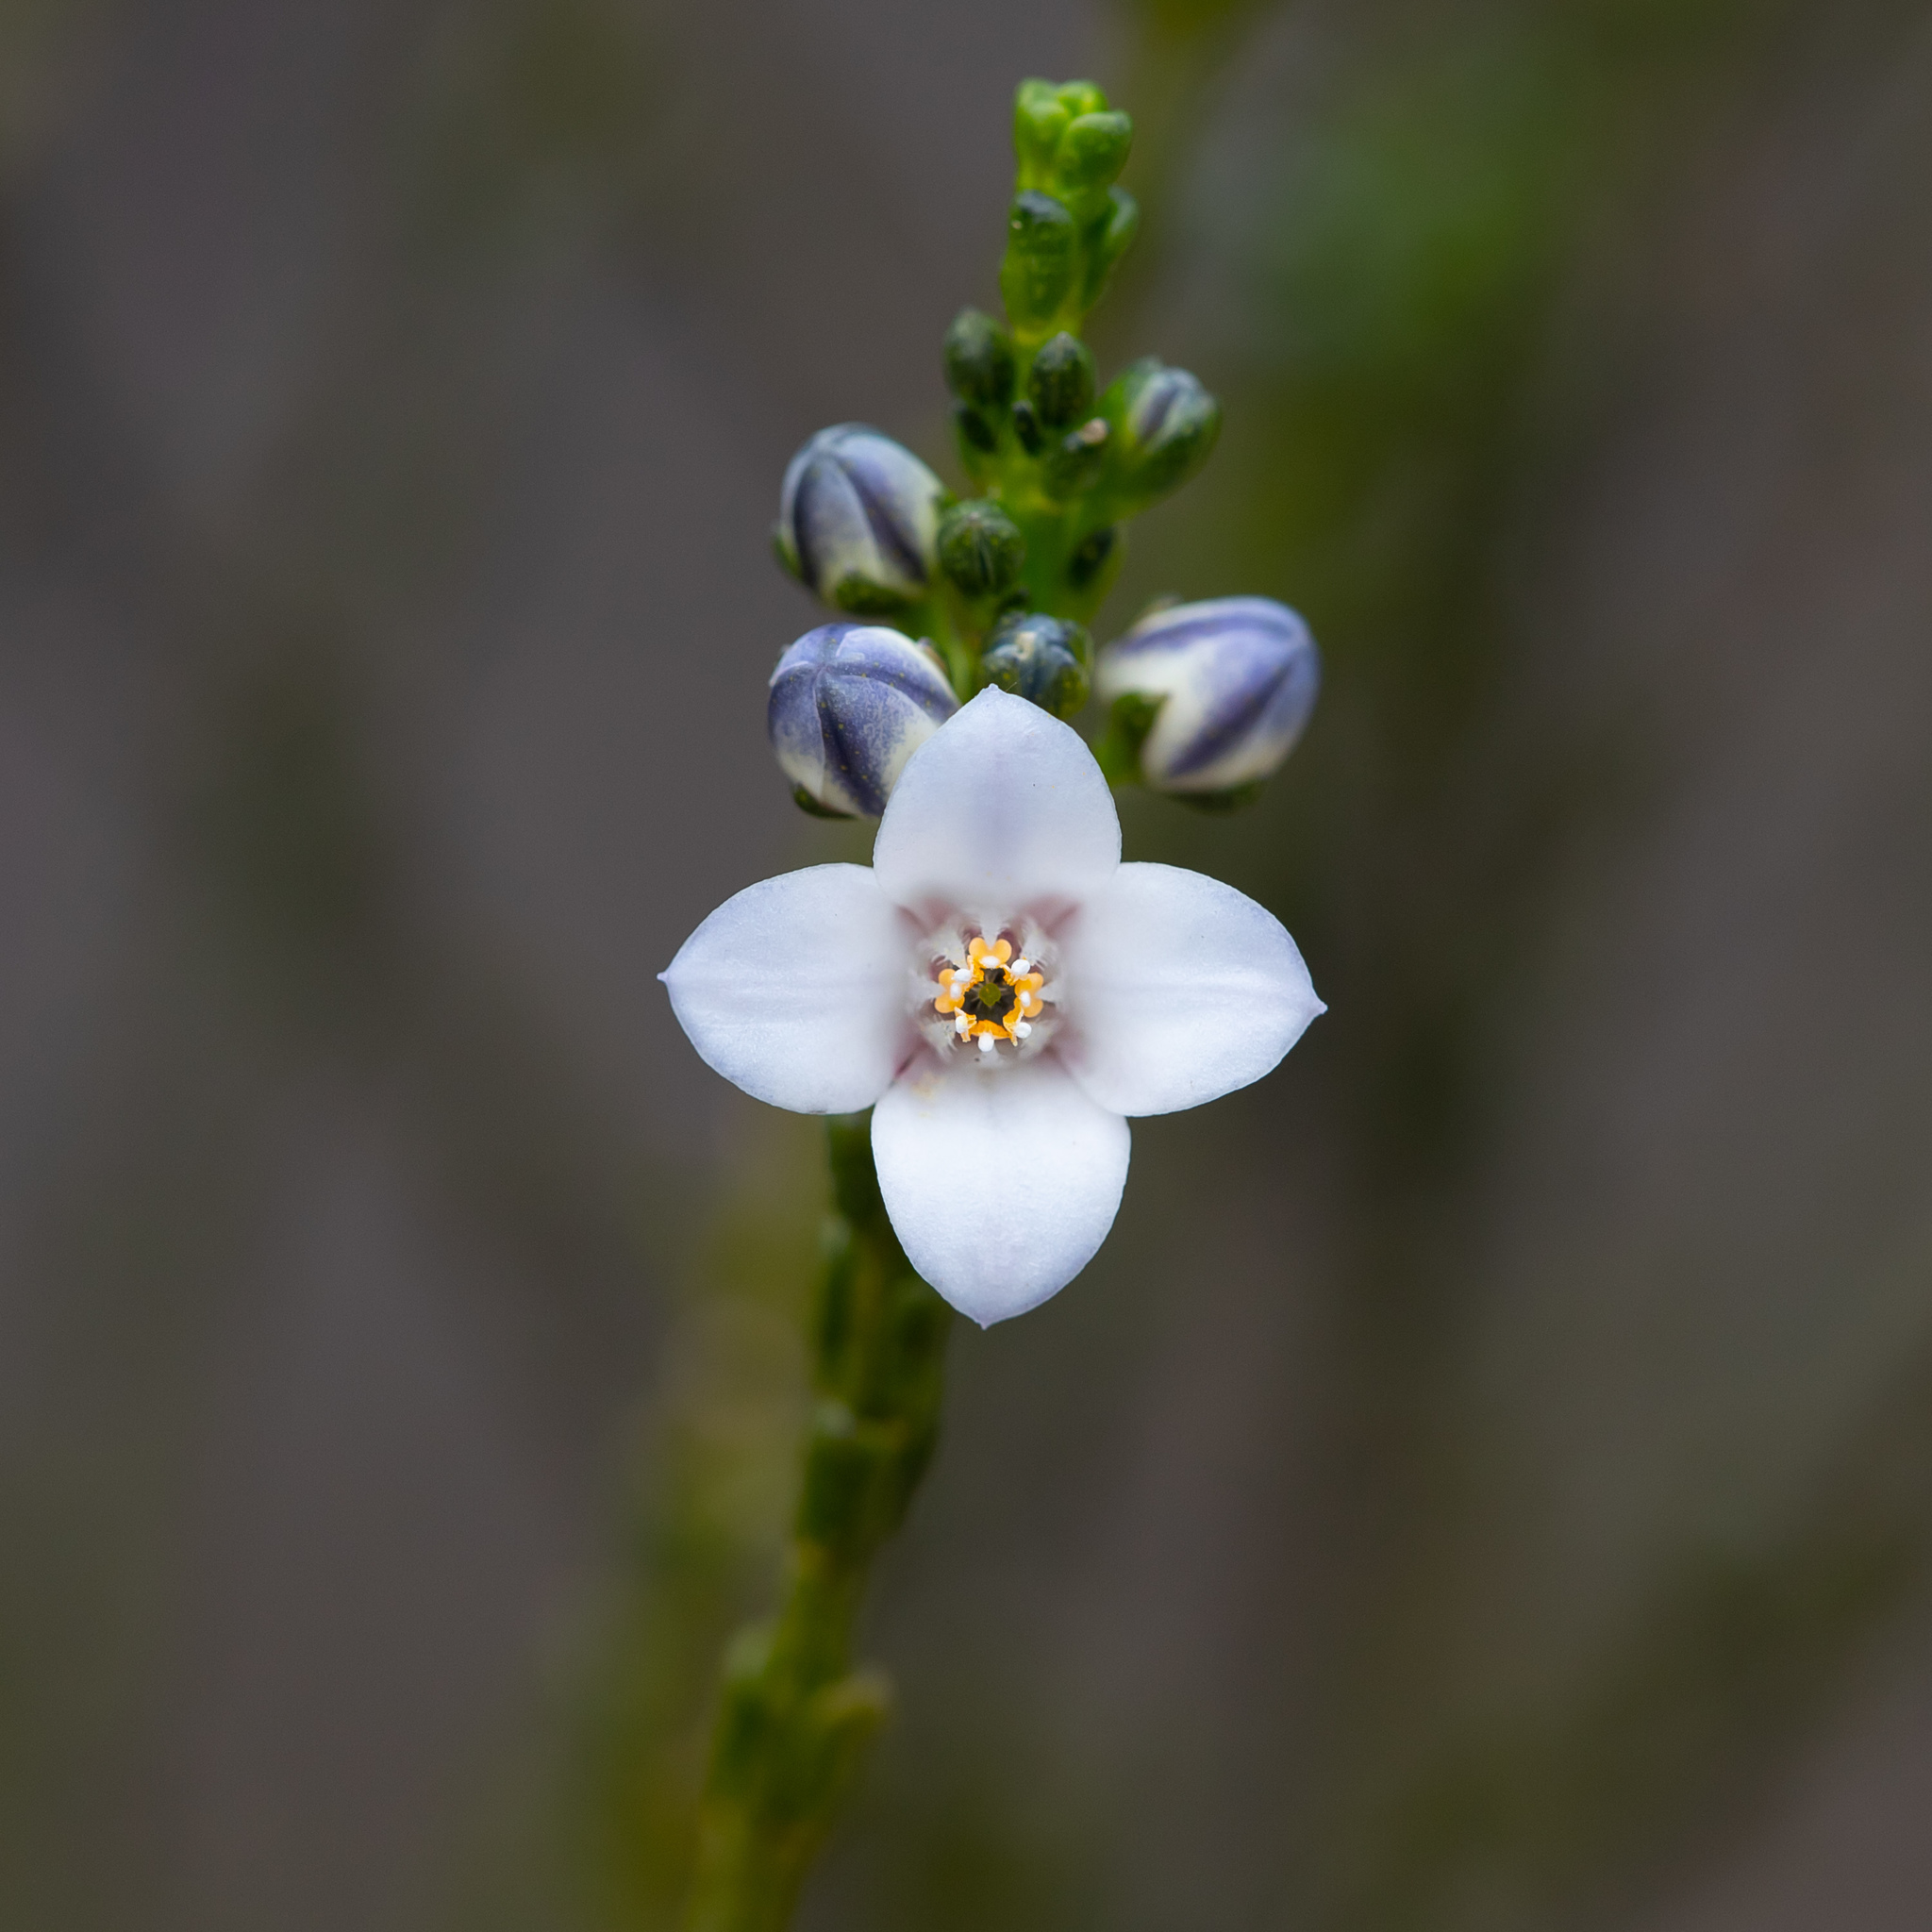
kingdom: Plantae
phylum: Tracheophyta
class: Magnoliopsida
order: Sapindales
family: Rutaceae
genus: Cyanothamnus
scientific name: Cyanothamnus coerulescens
